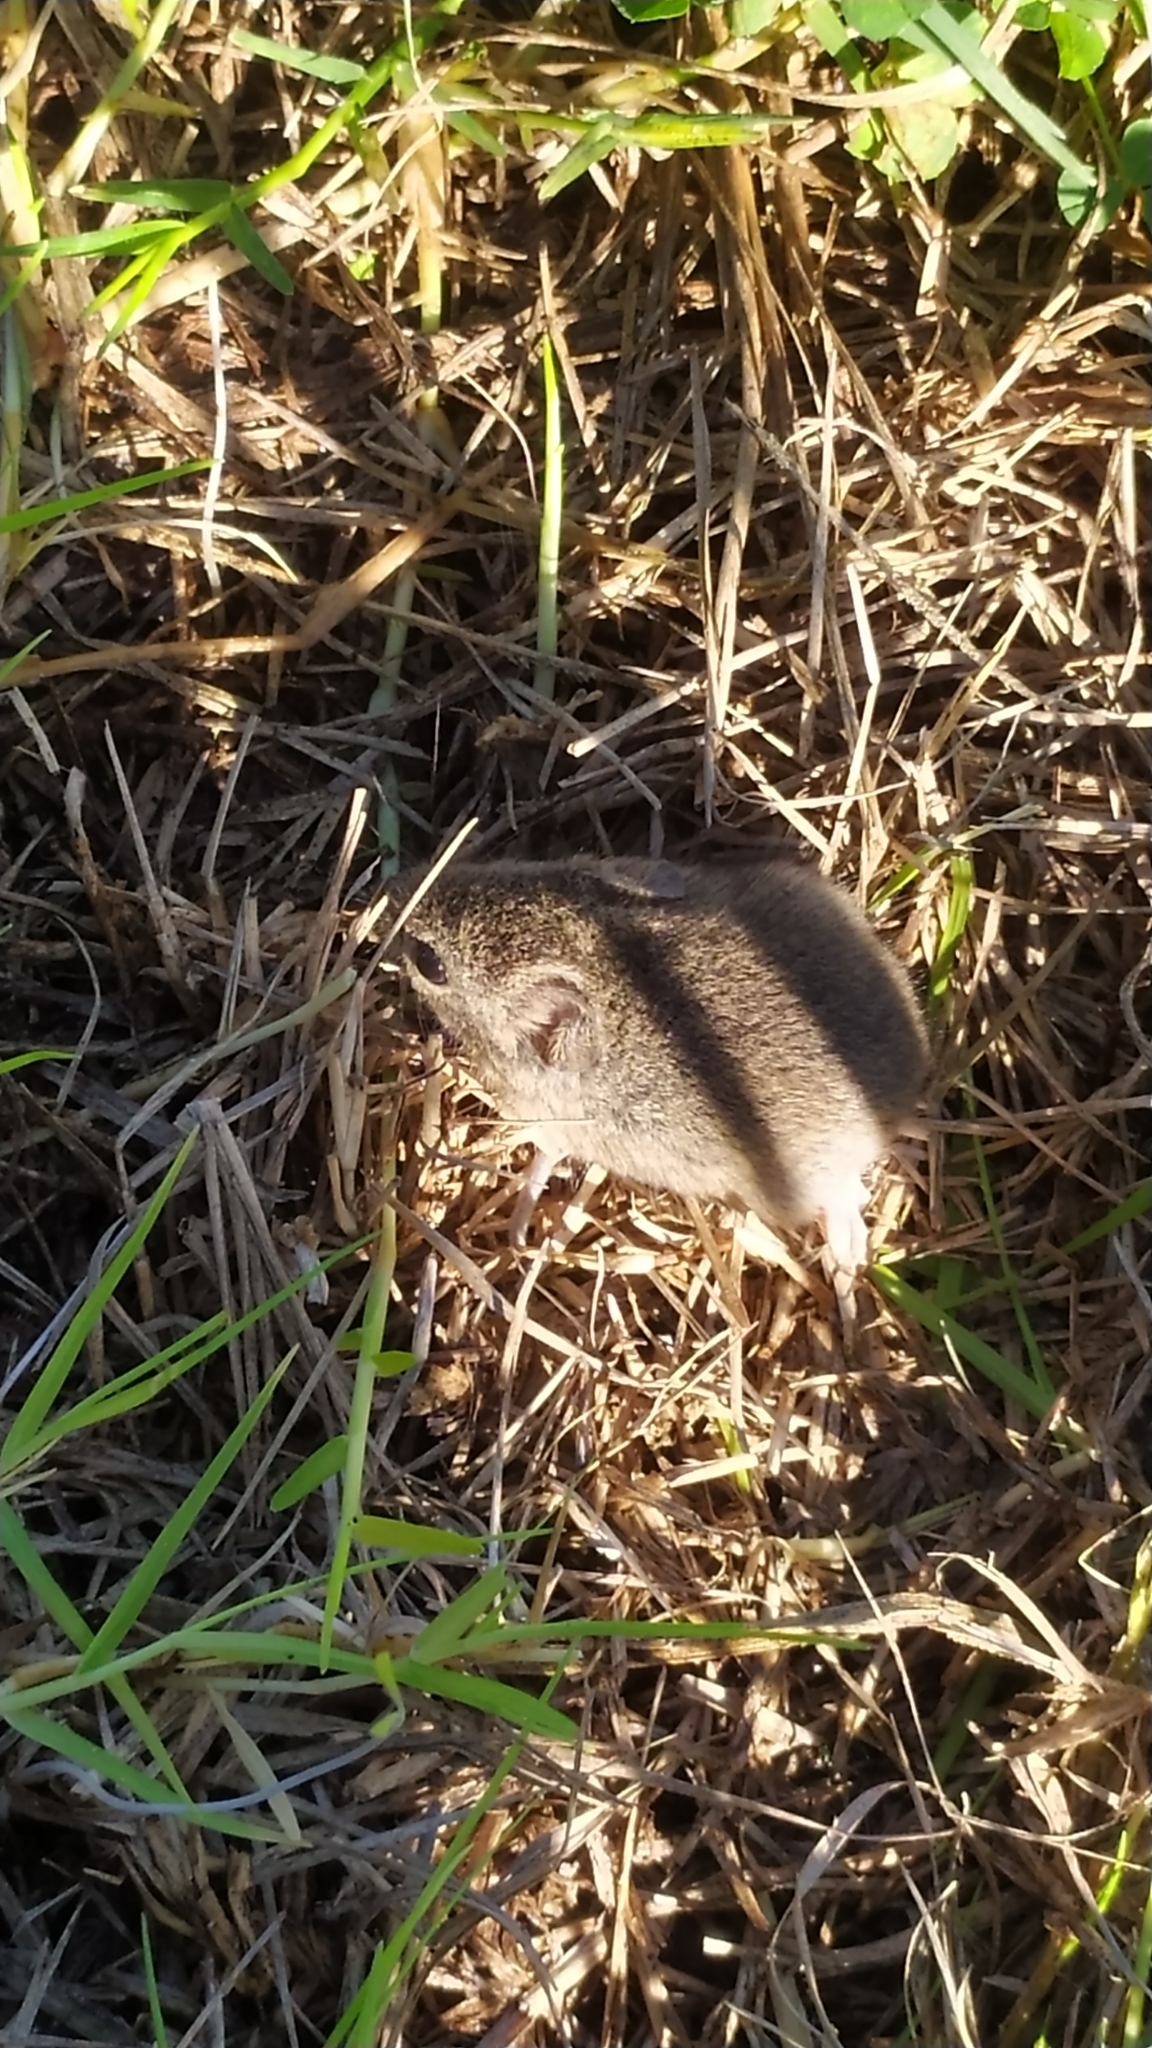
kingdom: Animalia
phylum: Chordata
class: Mammalia
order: Rodentia
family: Muridae
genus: Mus
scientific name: Mus musculus
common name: House mouse
